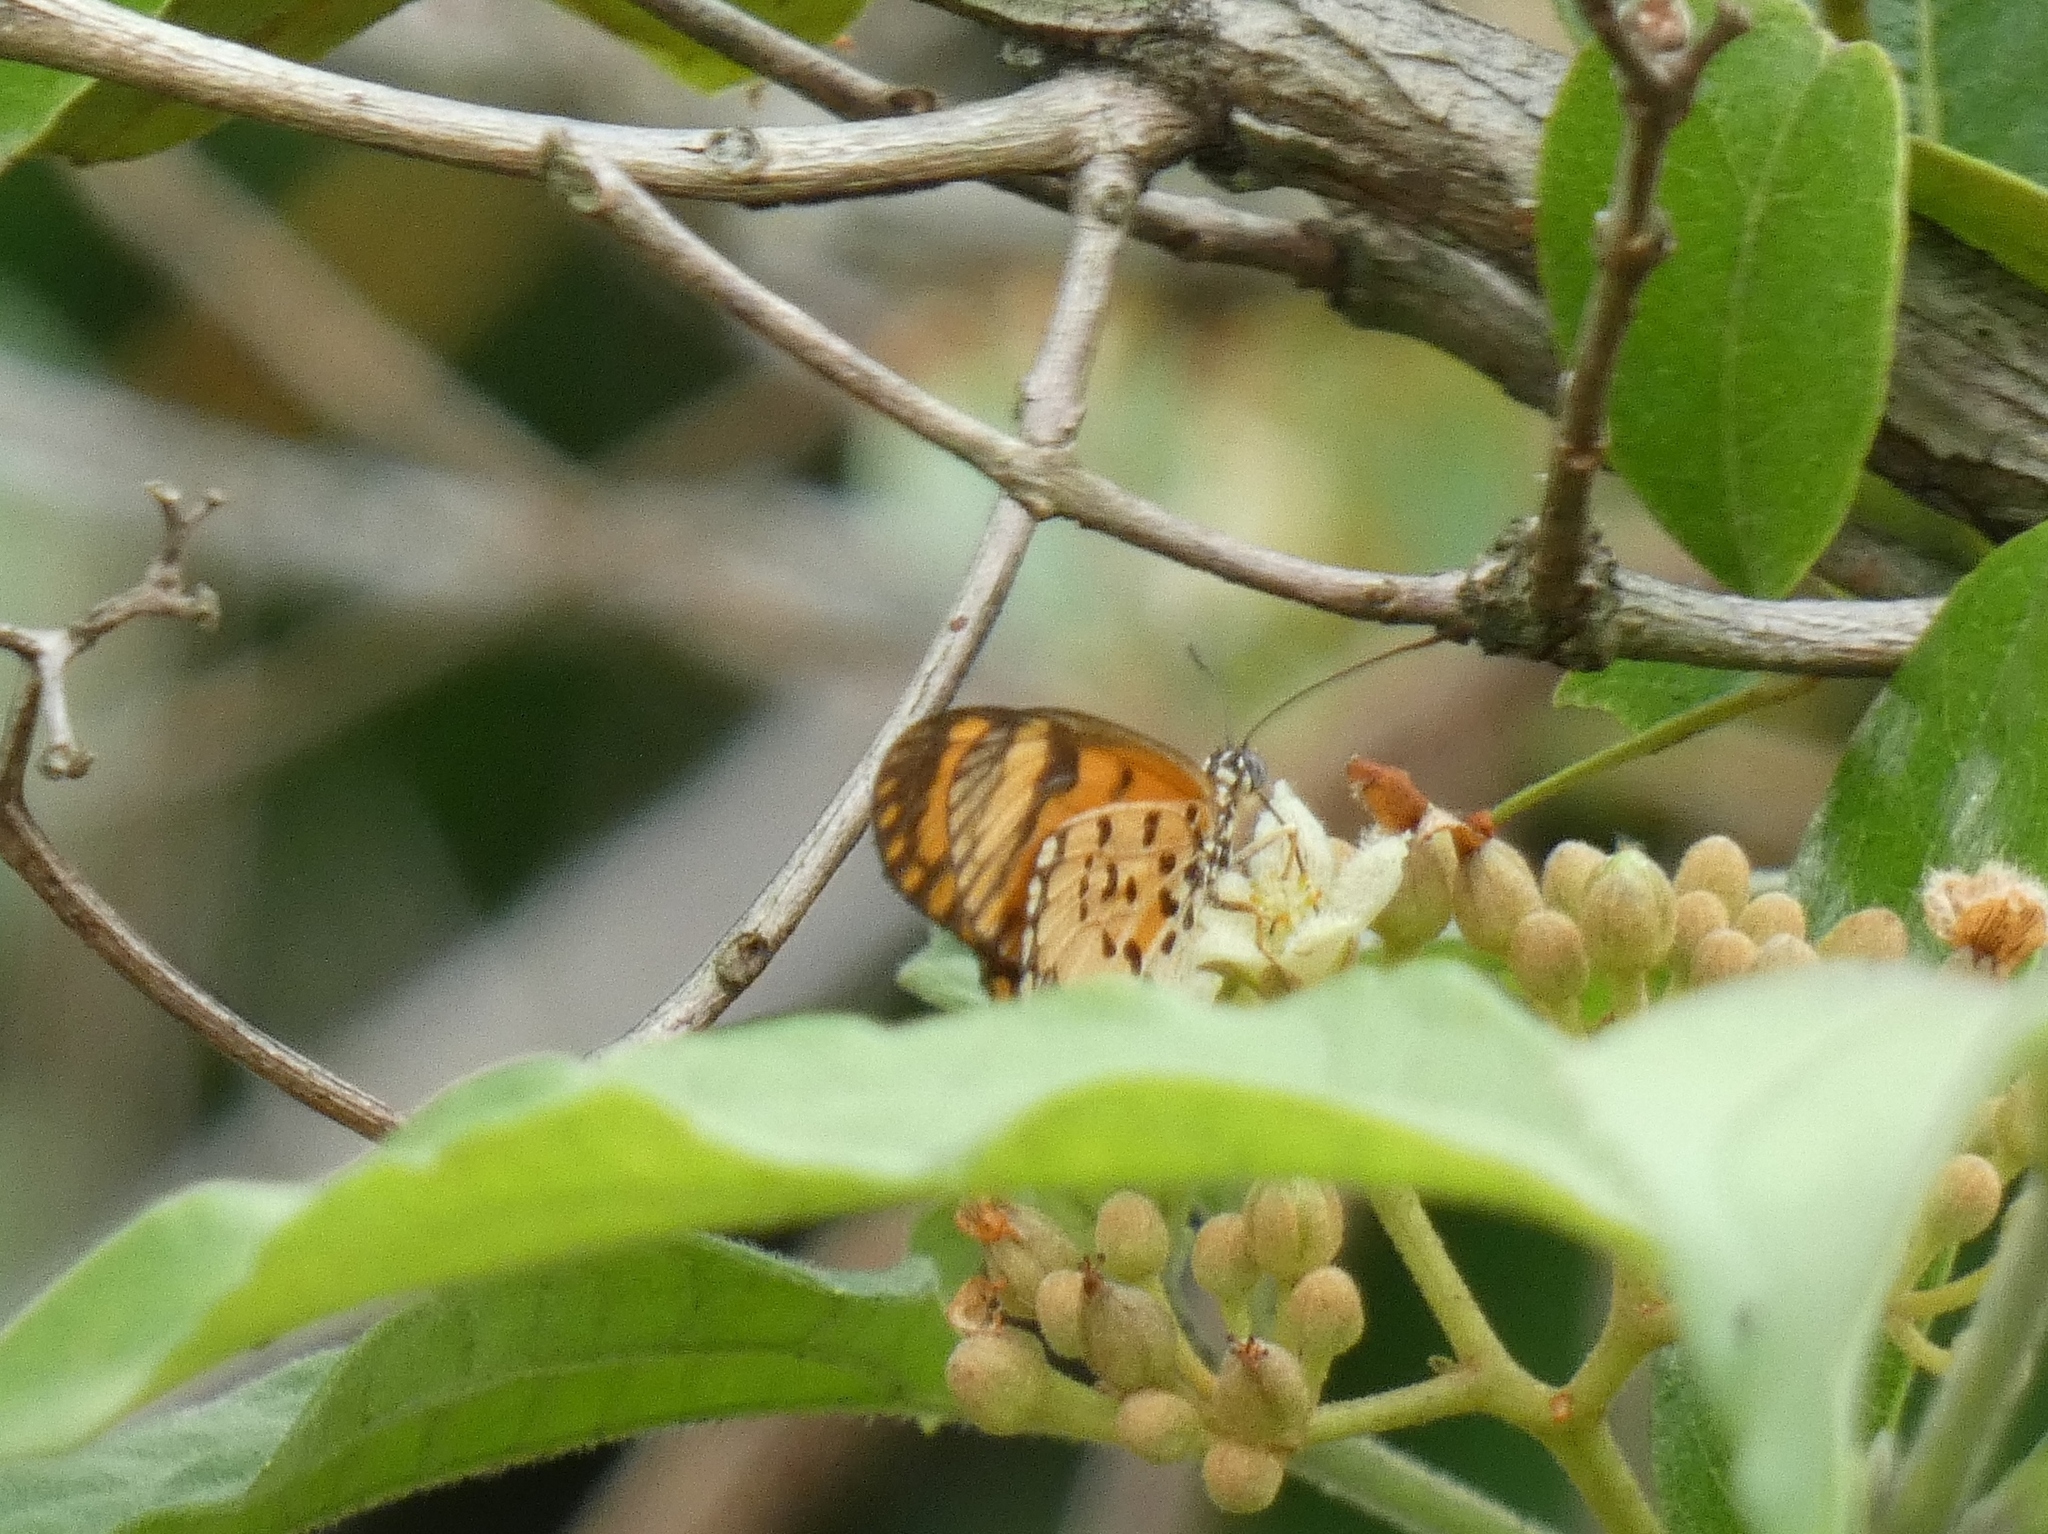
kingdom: Animalia
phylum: Arthropoda
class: Insecta
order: Lepidoptera
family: Nymphalidae
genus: Acraea
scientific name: Acraea Telchinia serena
